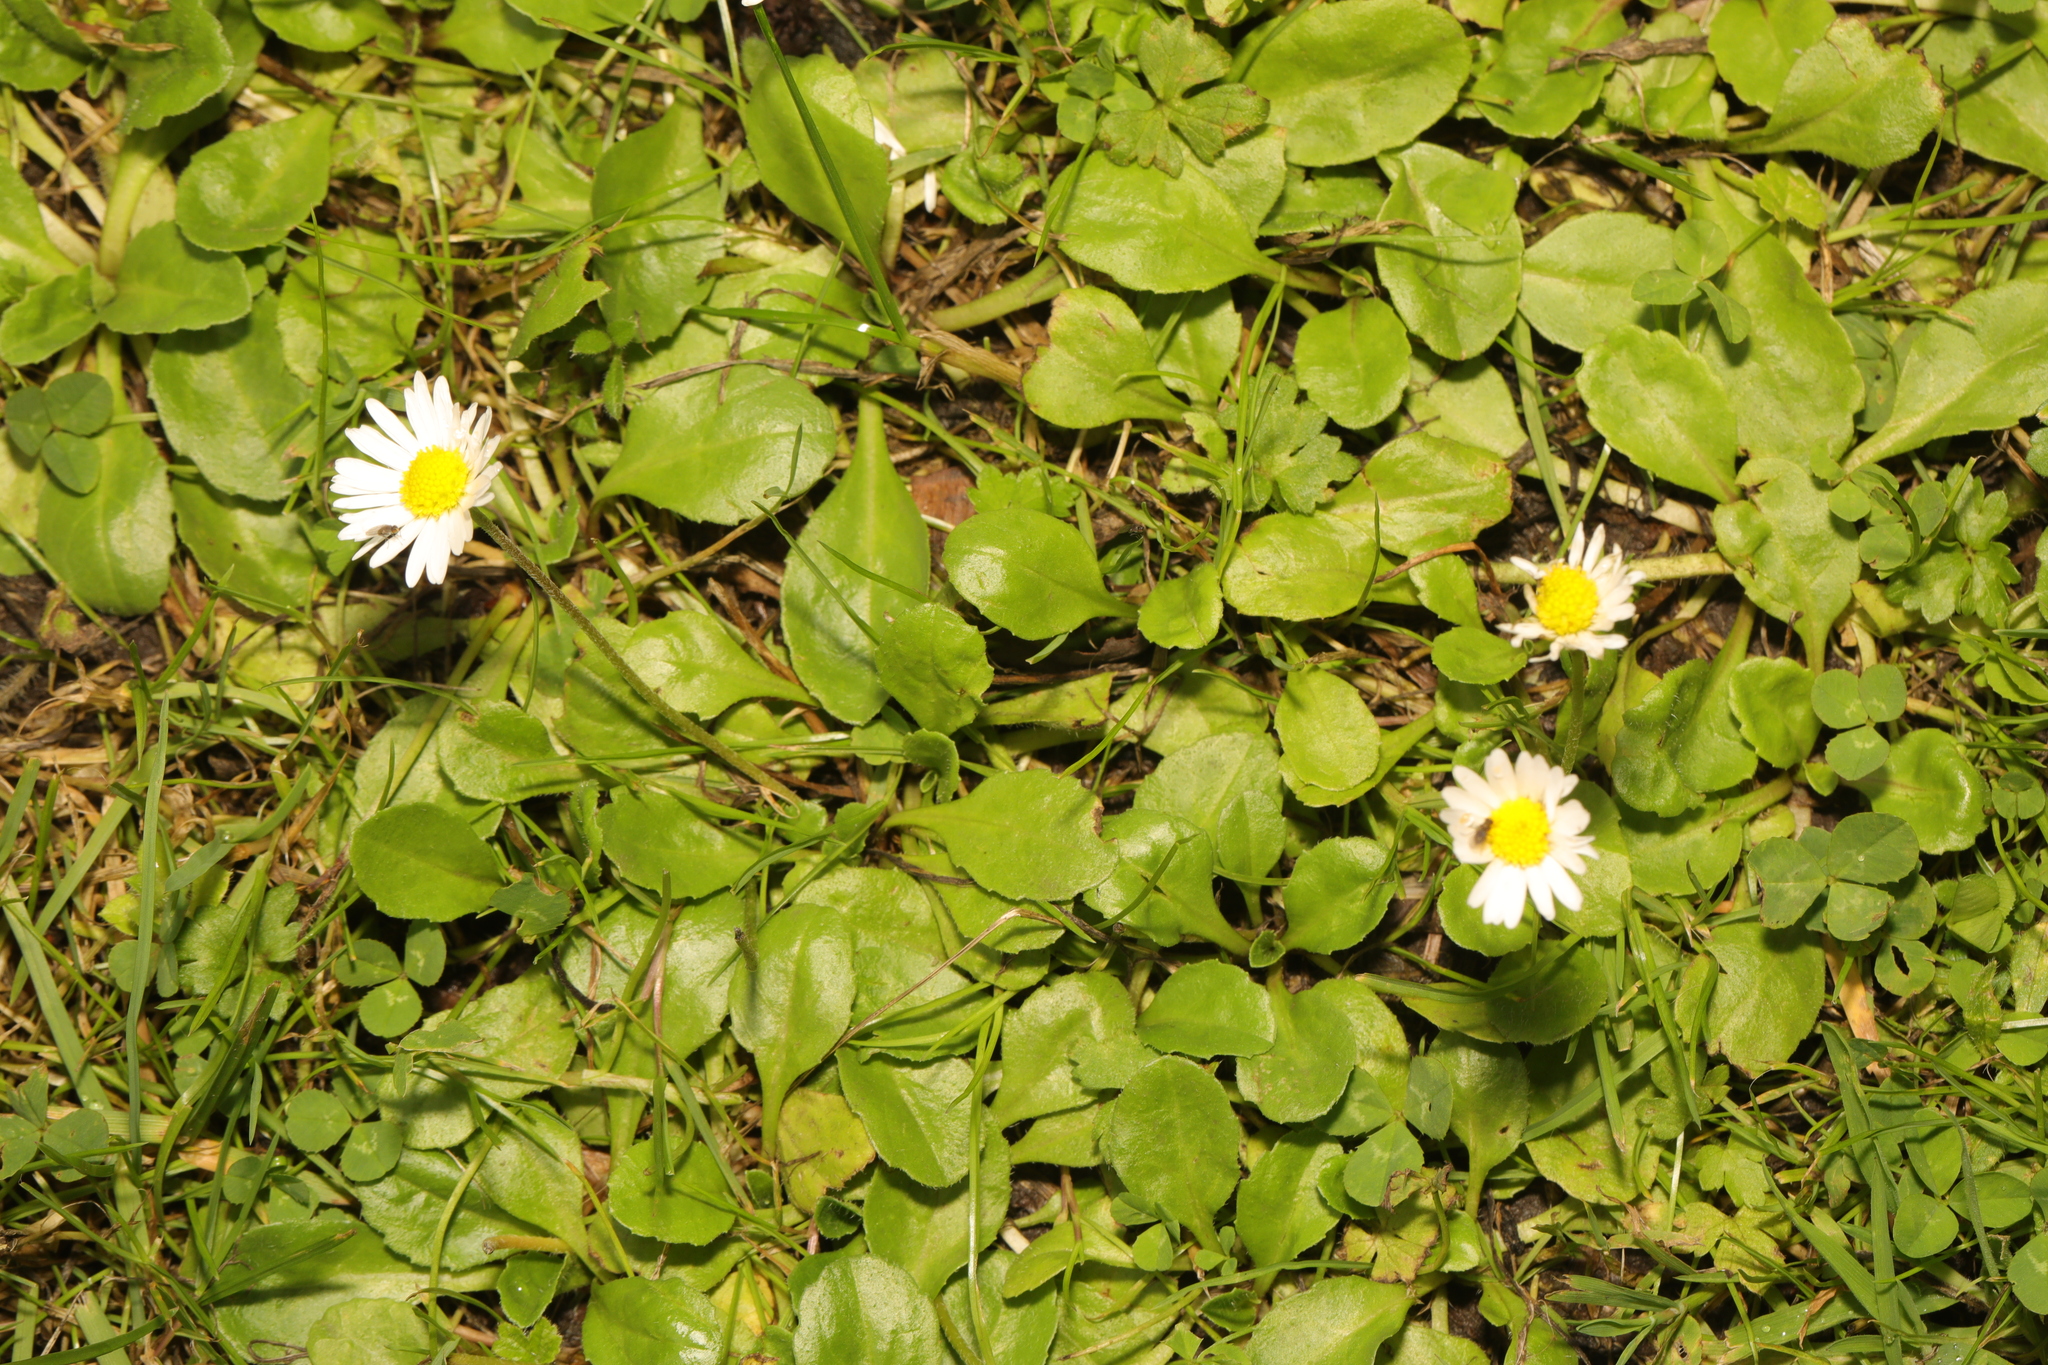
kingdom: Plantae
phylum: Tracheophyta
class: Magnoliopsida
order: Asterales
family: Asteraceae
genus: Bellis
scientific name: Bellis perennis
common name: Lawndaisy
